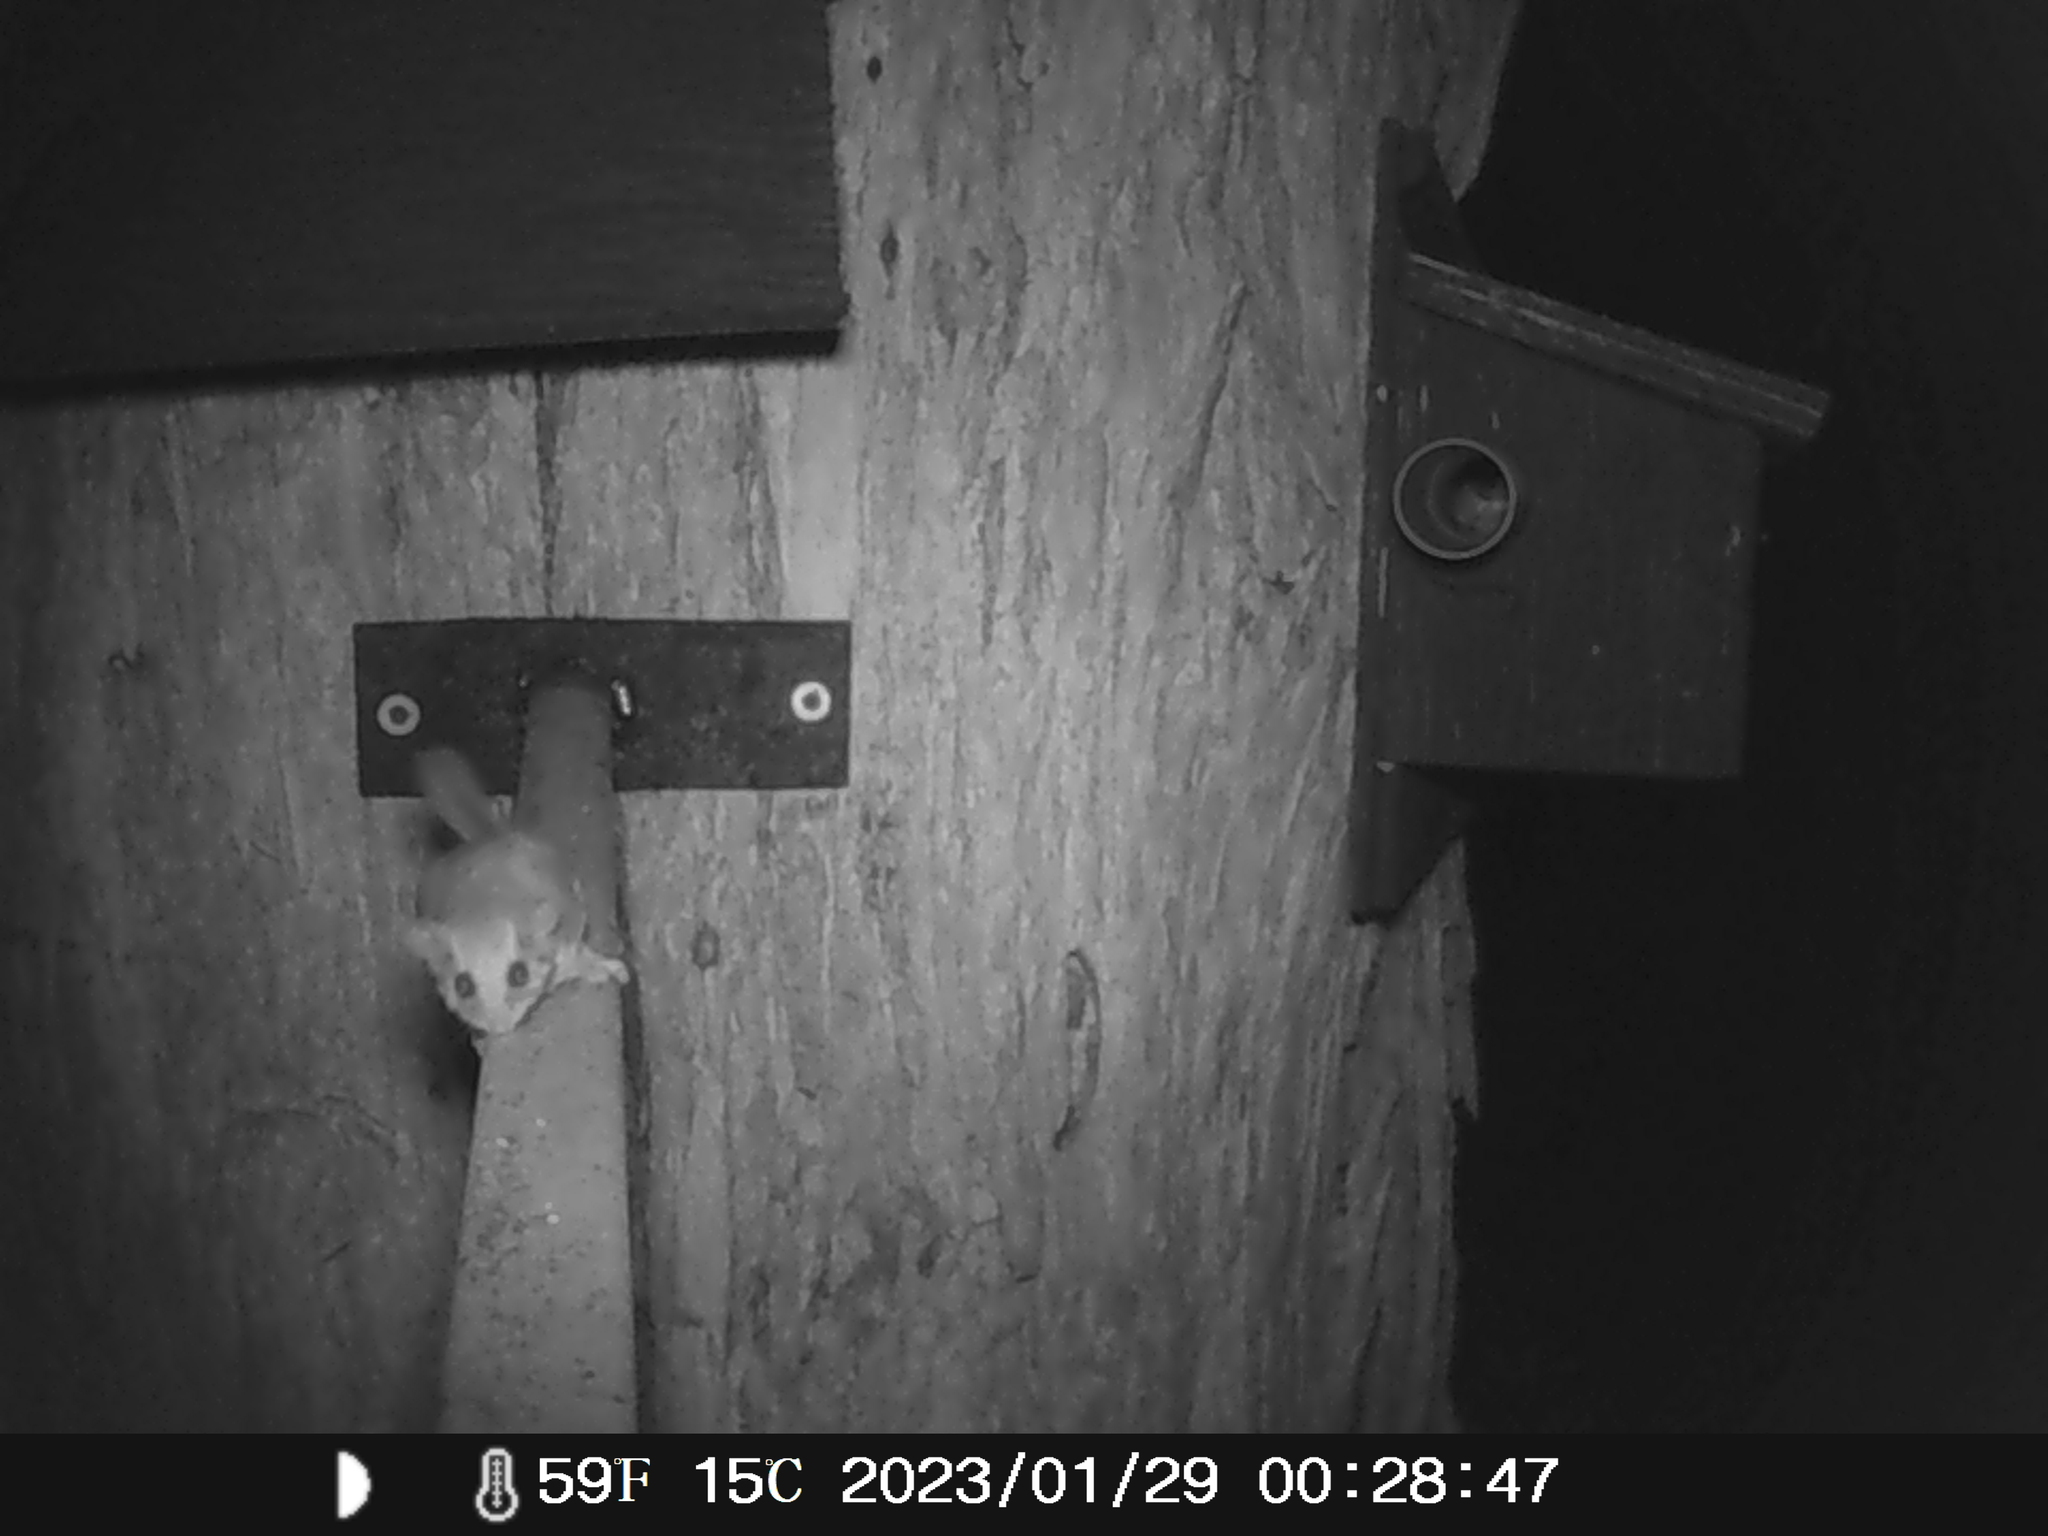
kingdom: Animalia
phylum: Chordata
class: Mammalia
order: Diprotodontia
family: Acrobatidae
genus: Acrobates
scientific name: Acrobates pygmaeus
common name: Feathertail glider
